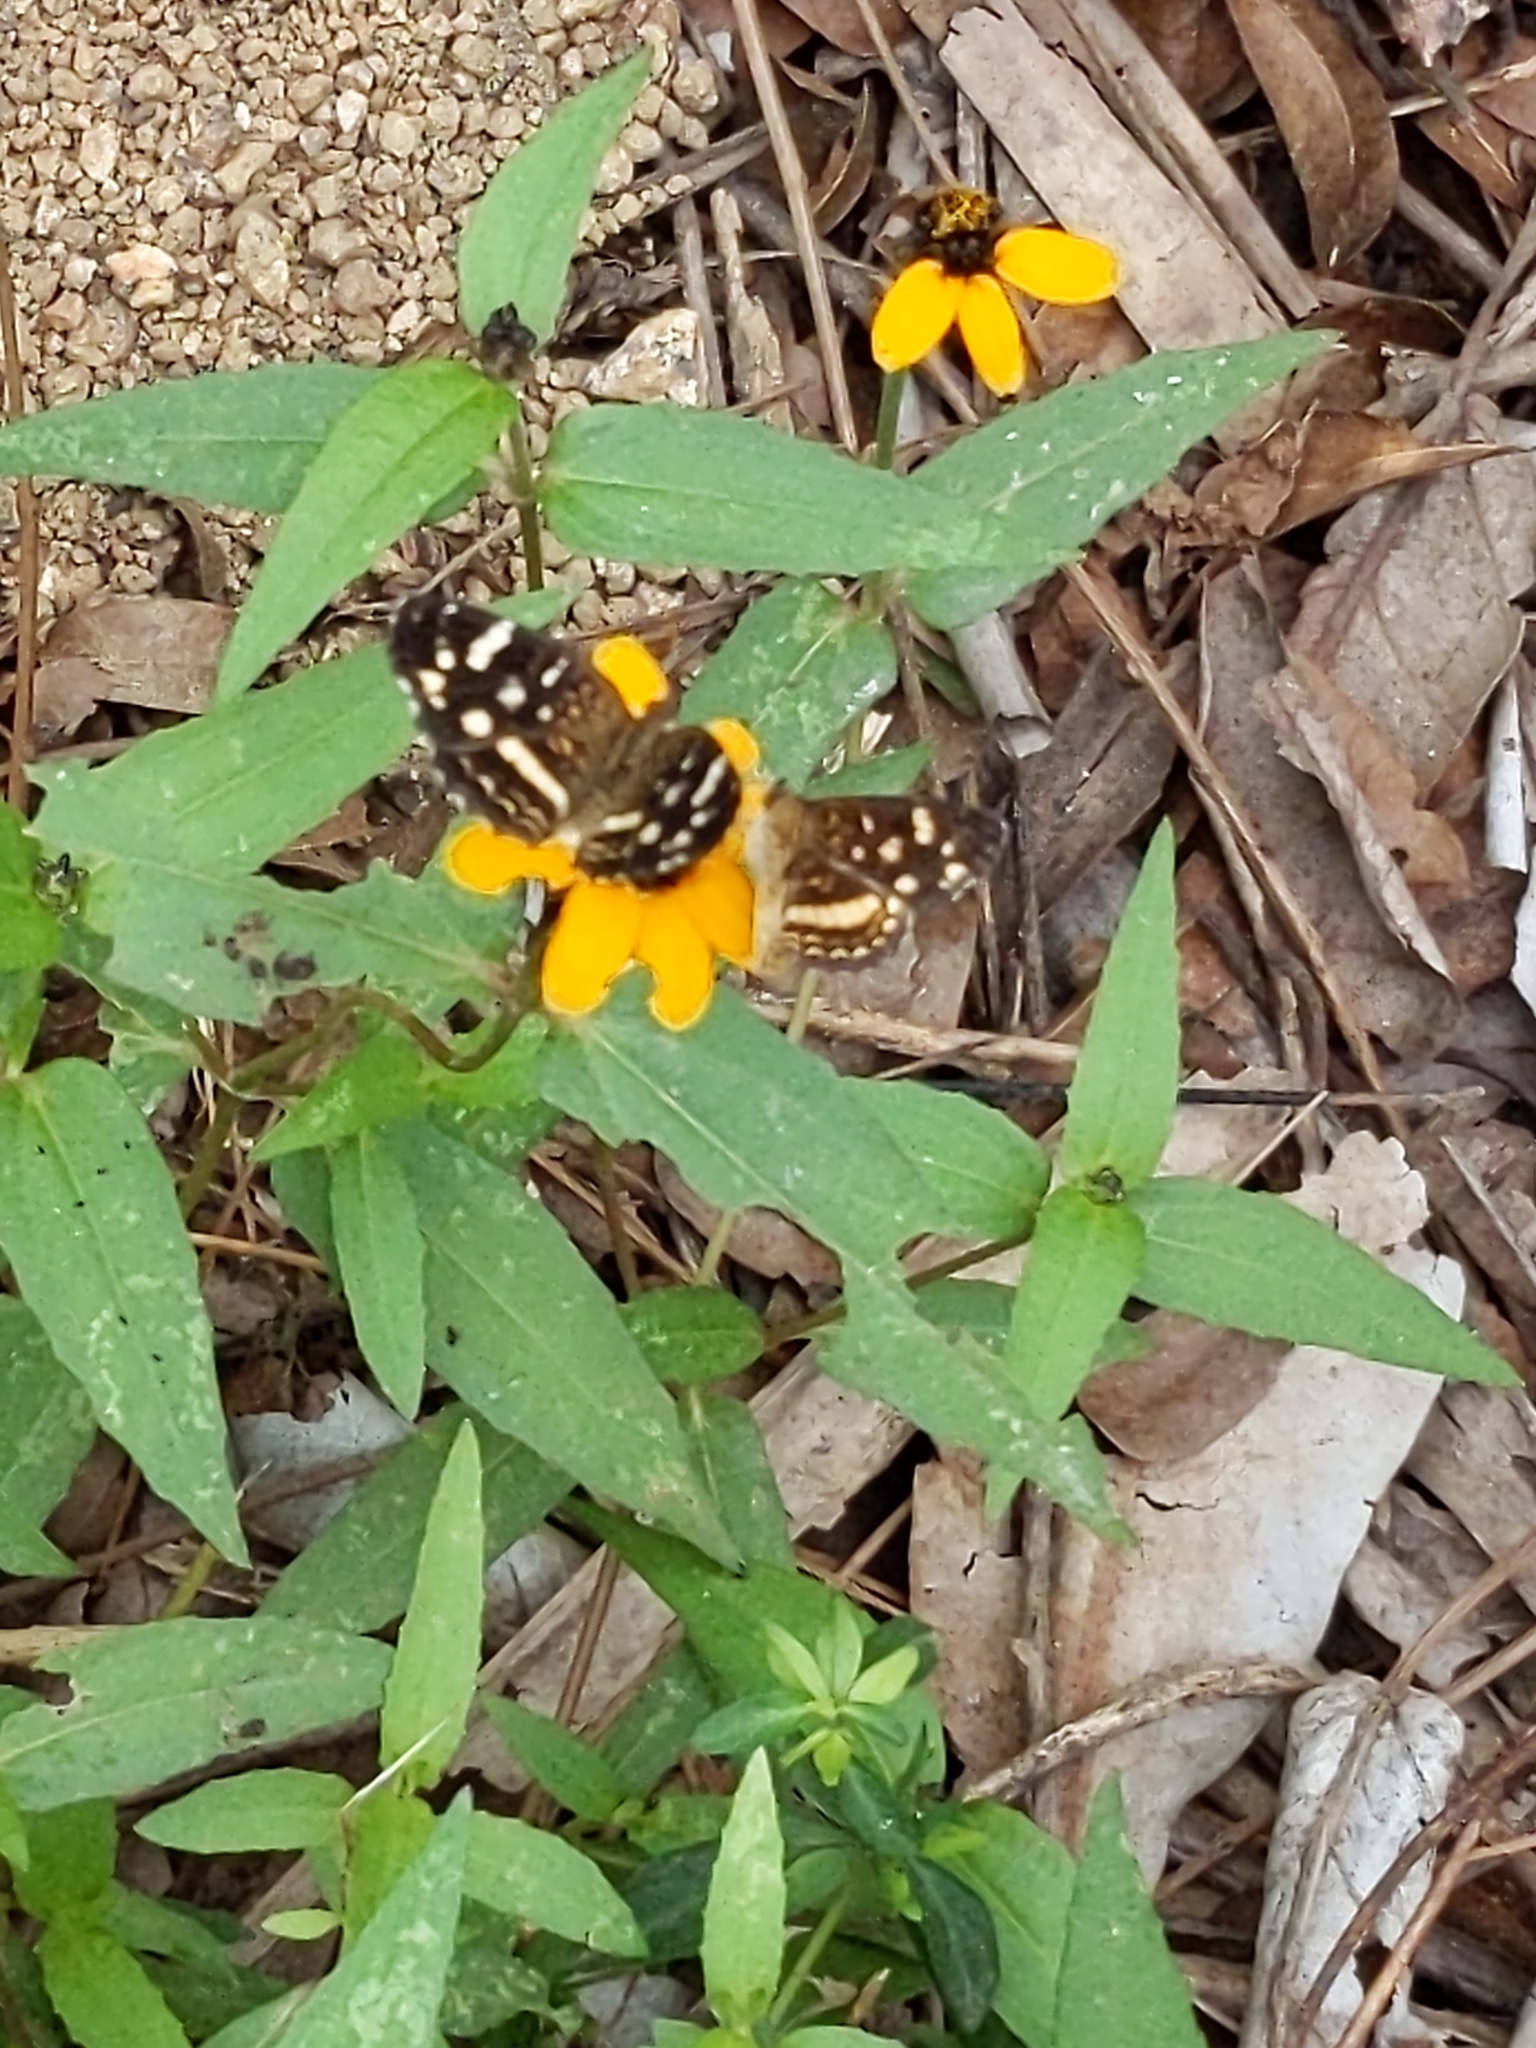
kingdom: Animalia
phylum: Arthropoda
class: Insecta
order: Lepidoptera
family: Nymphalidae
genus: Anthanassa
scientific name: Anthanassa tulcis
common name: Pale-banded crescent
